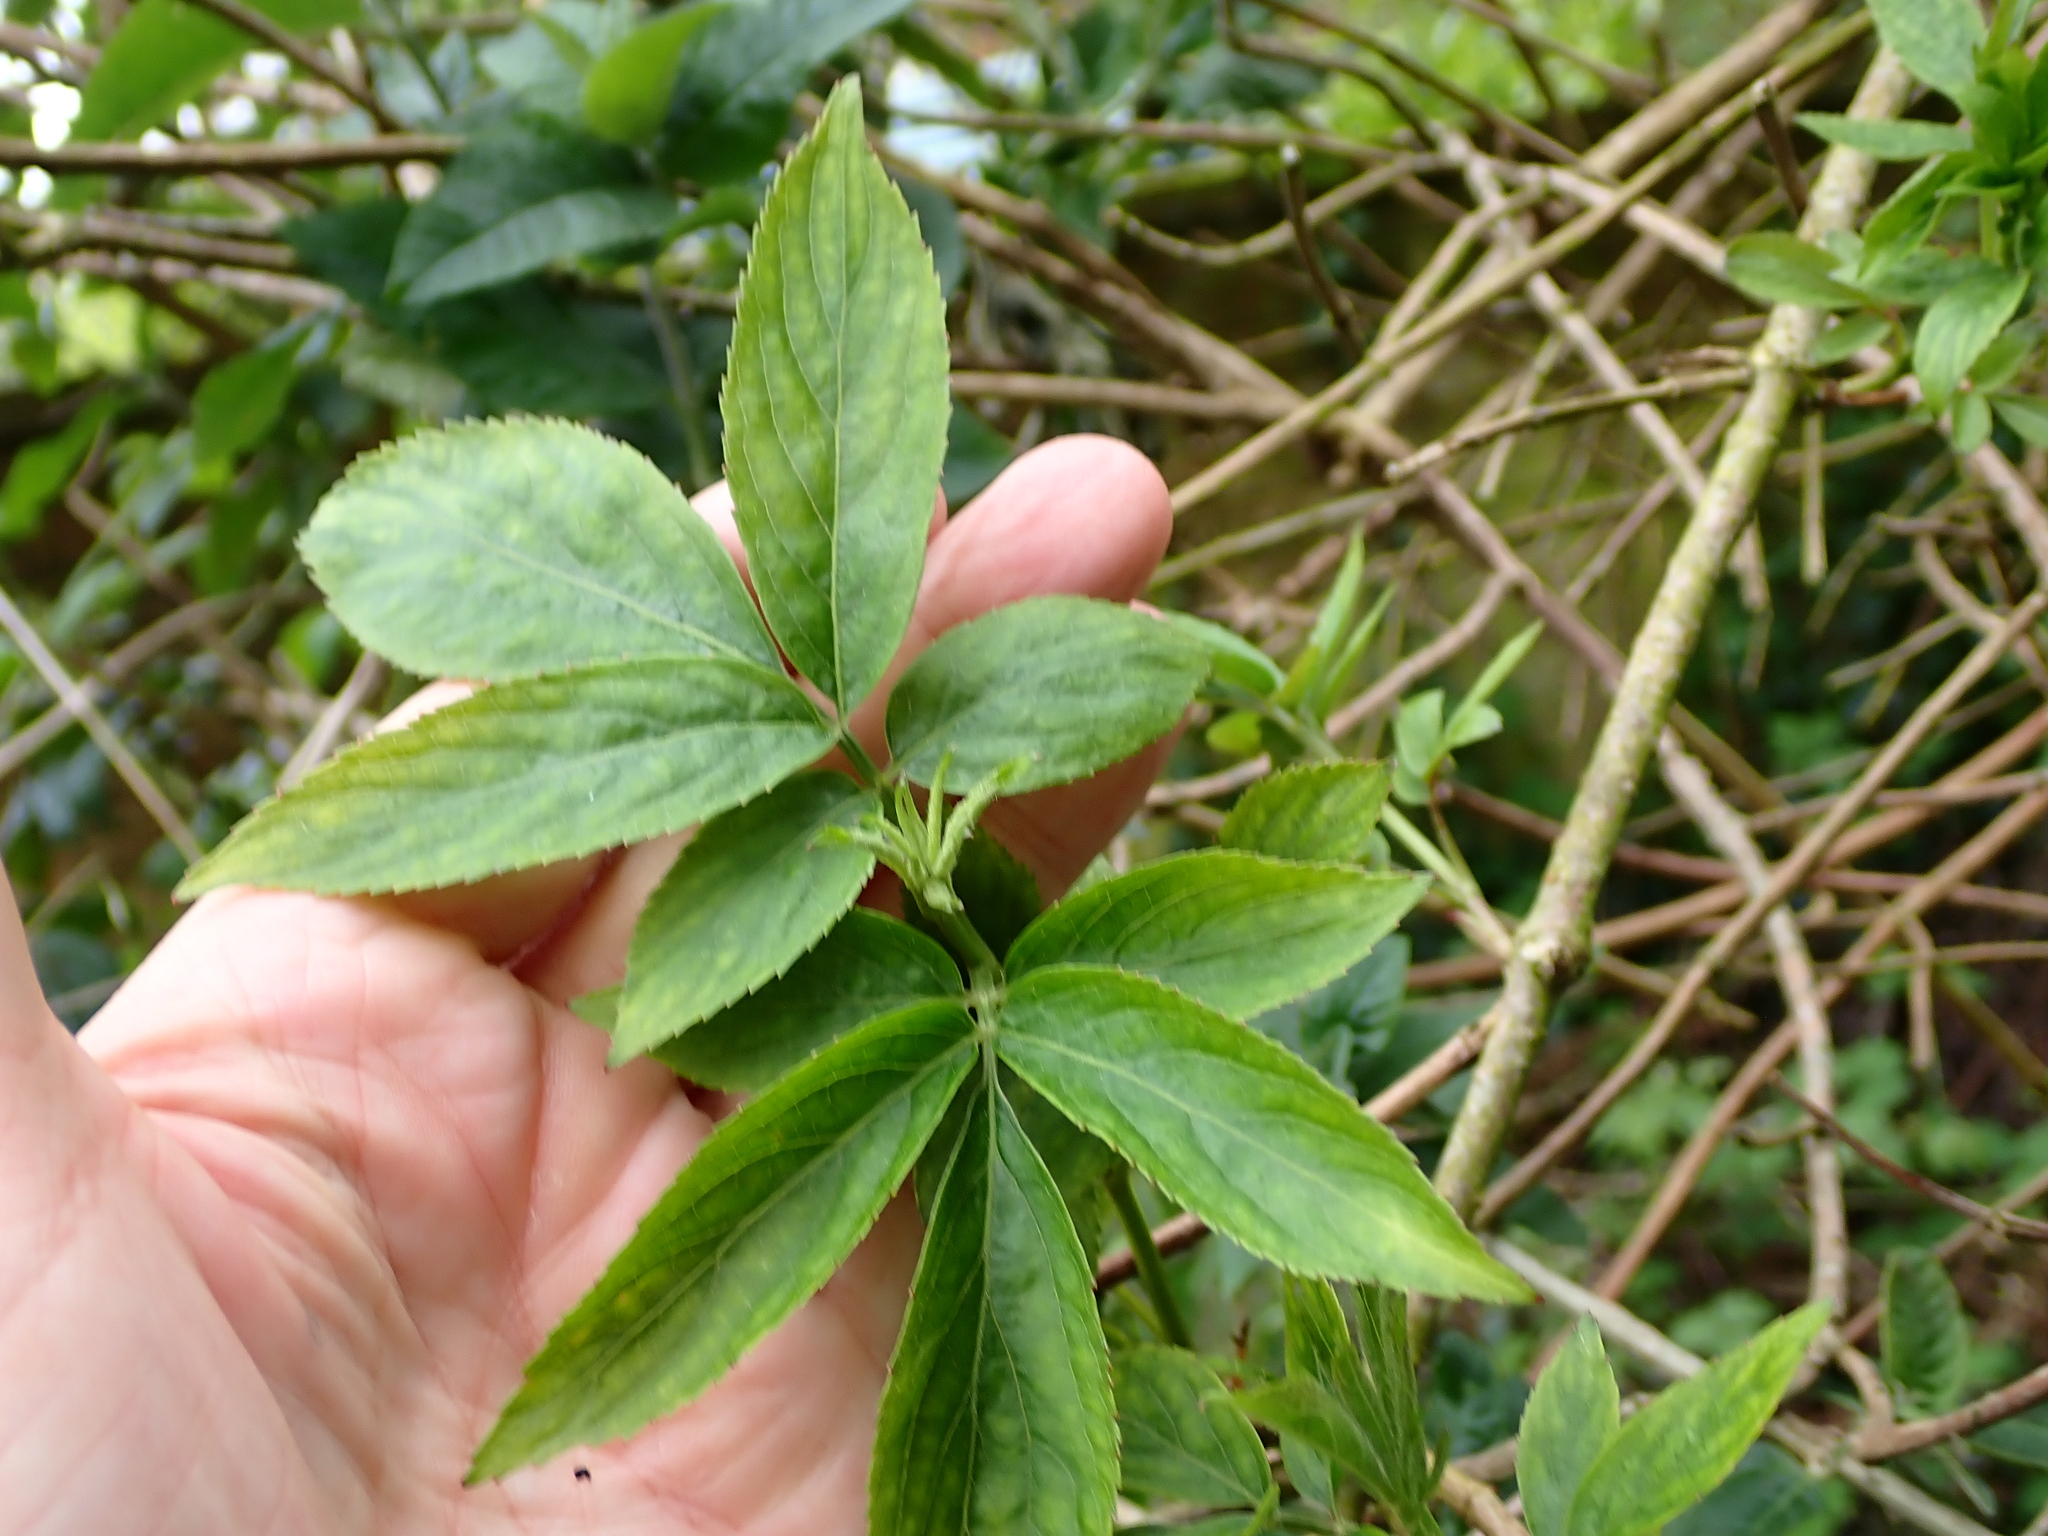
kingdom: Plantae
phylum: Tracheophyta
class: Magnoliopsida
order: Dipsacales
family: Viburnaceae
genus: Sambucus
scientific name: Sambucus nigra
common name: Elder
